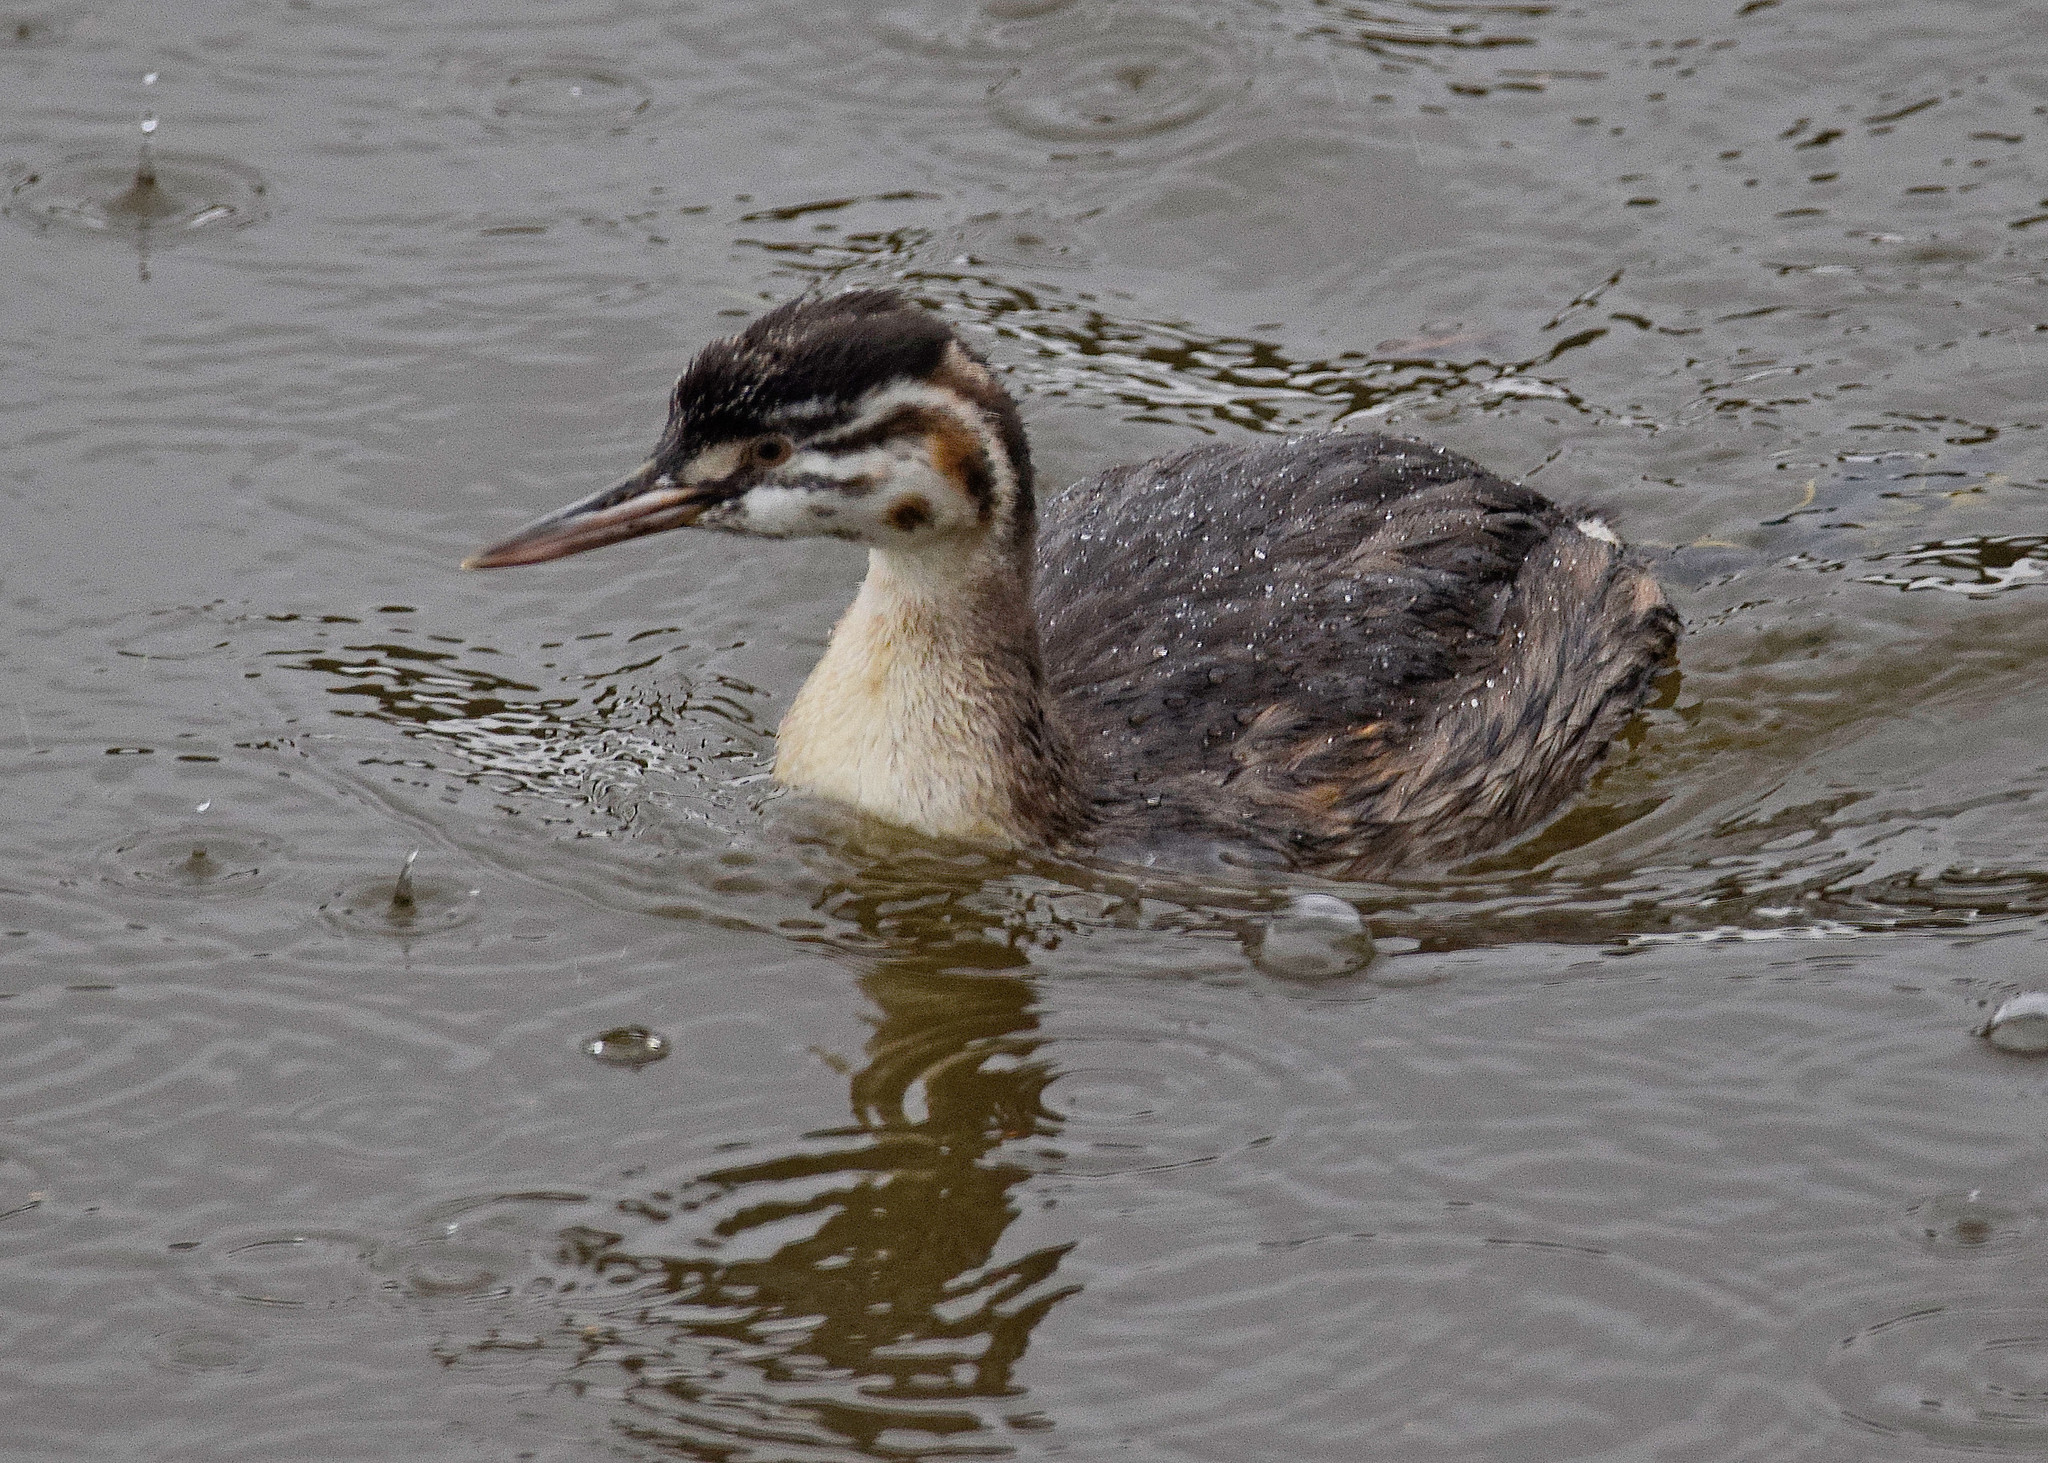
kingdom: Animalia
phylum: Chordata
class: Aves
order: Podicipediformes
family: Podicipedidae
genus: Podiceps
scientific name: Podiceps cristatus
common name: Great crested grebe
